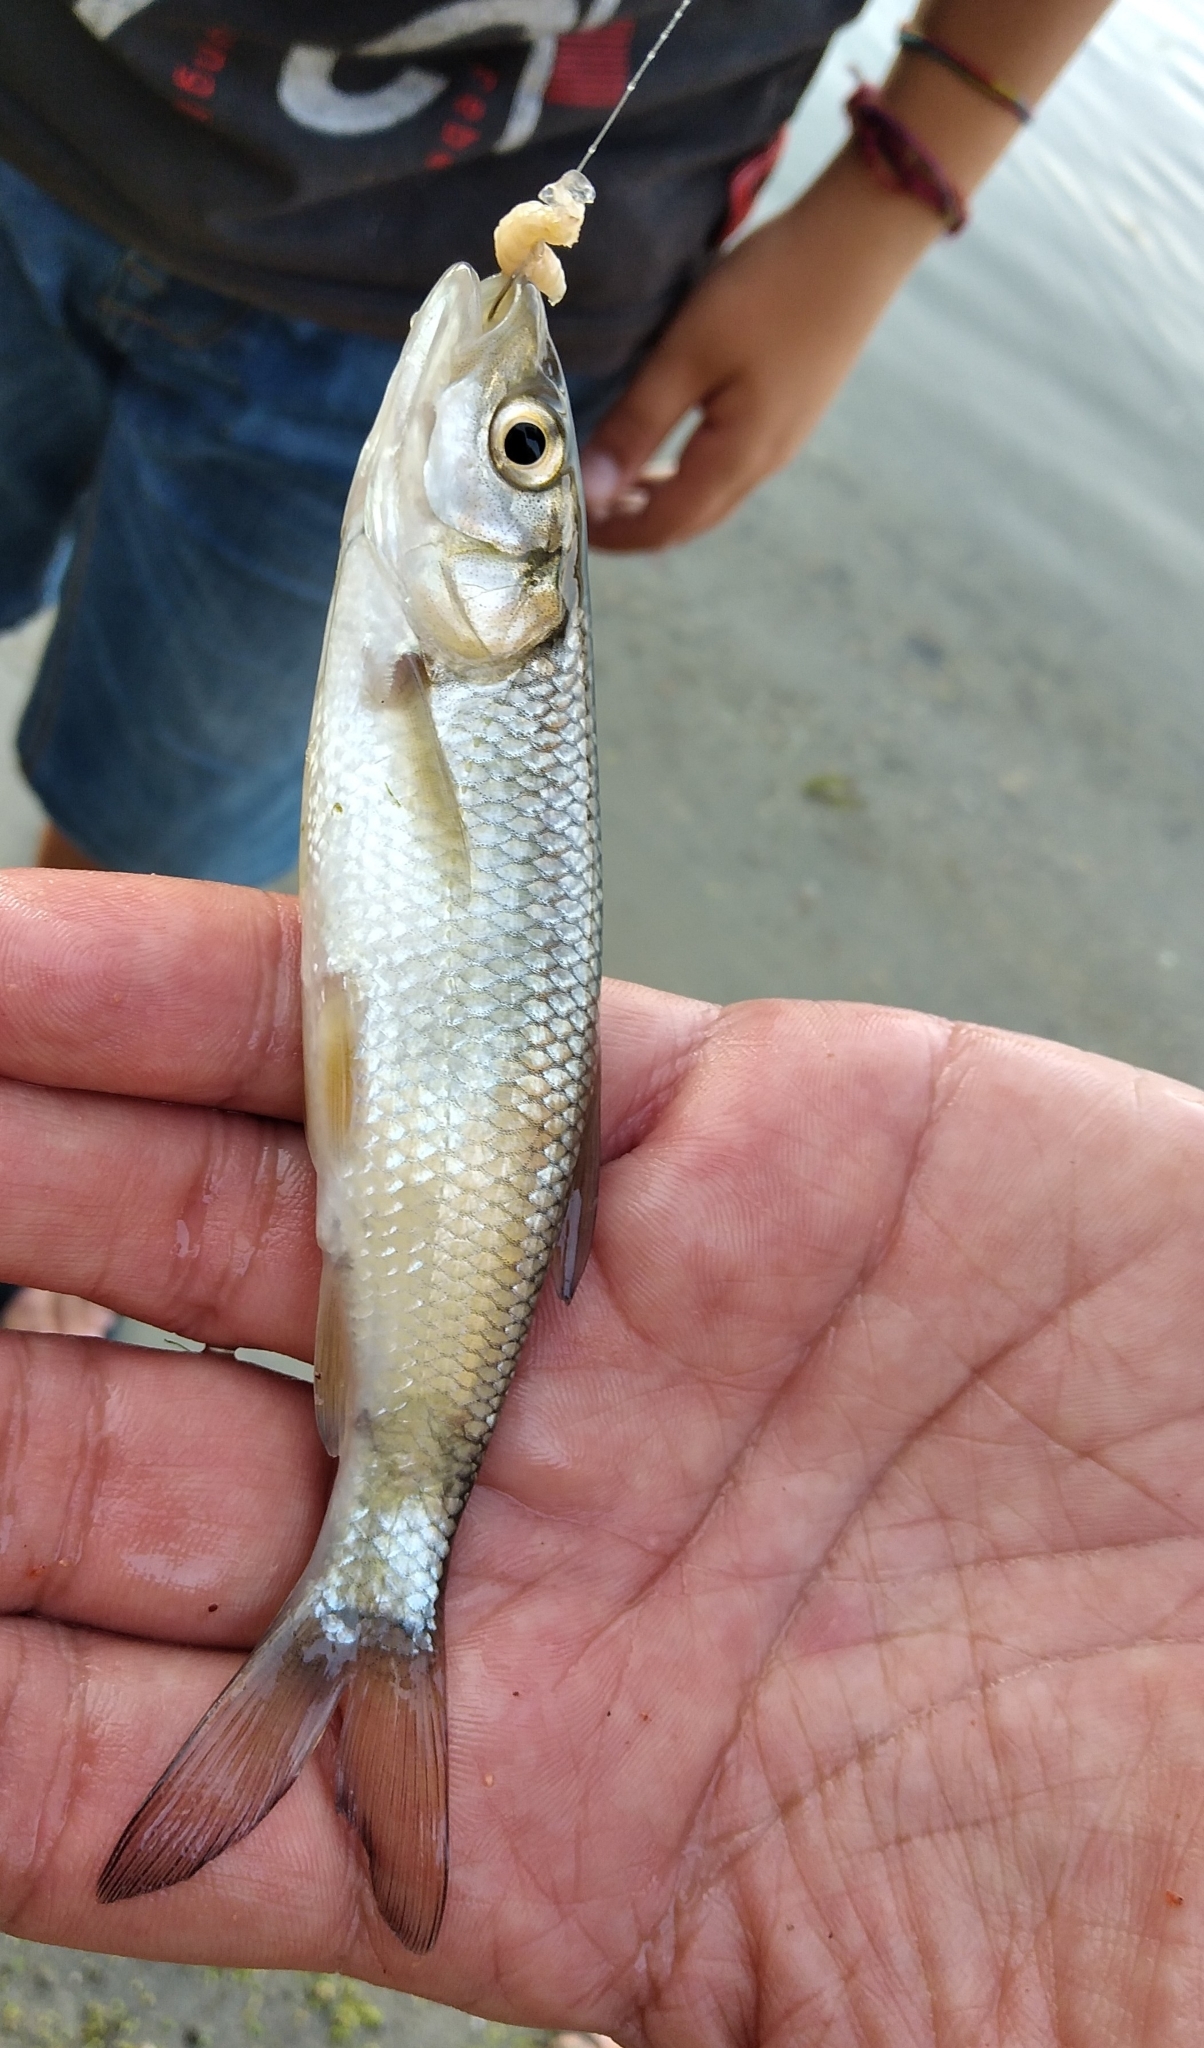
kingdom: Animalia
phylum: Chordata
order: Cypriniformes
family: Cyprinidae
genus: Squalius
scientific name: Squalius cephalus
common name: Chub
